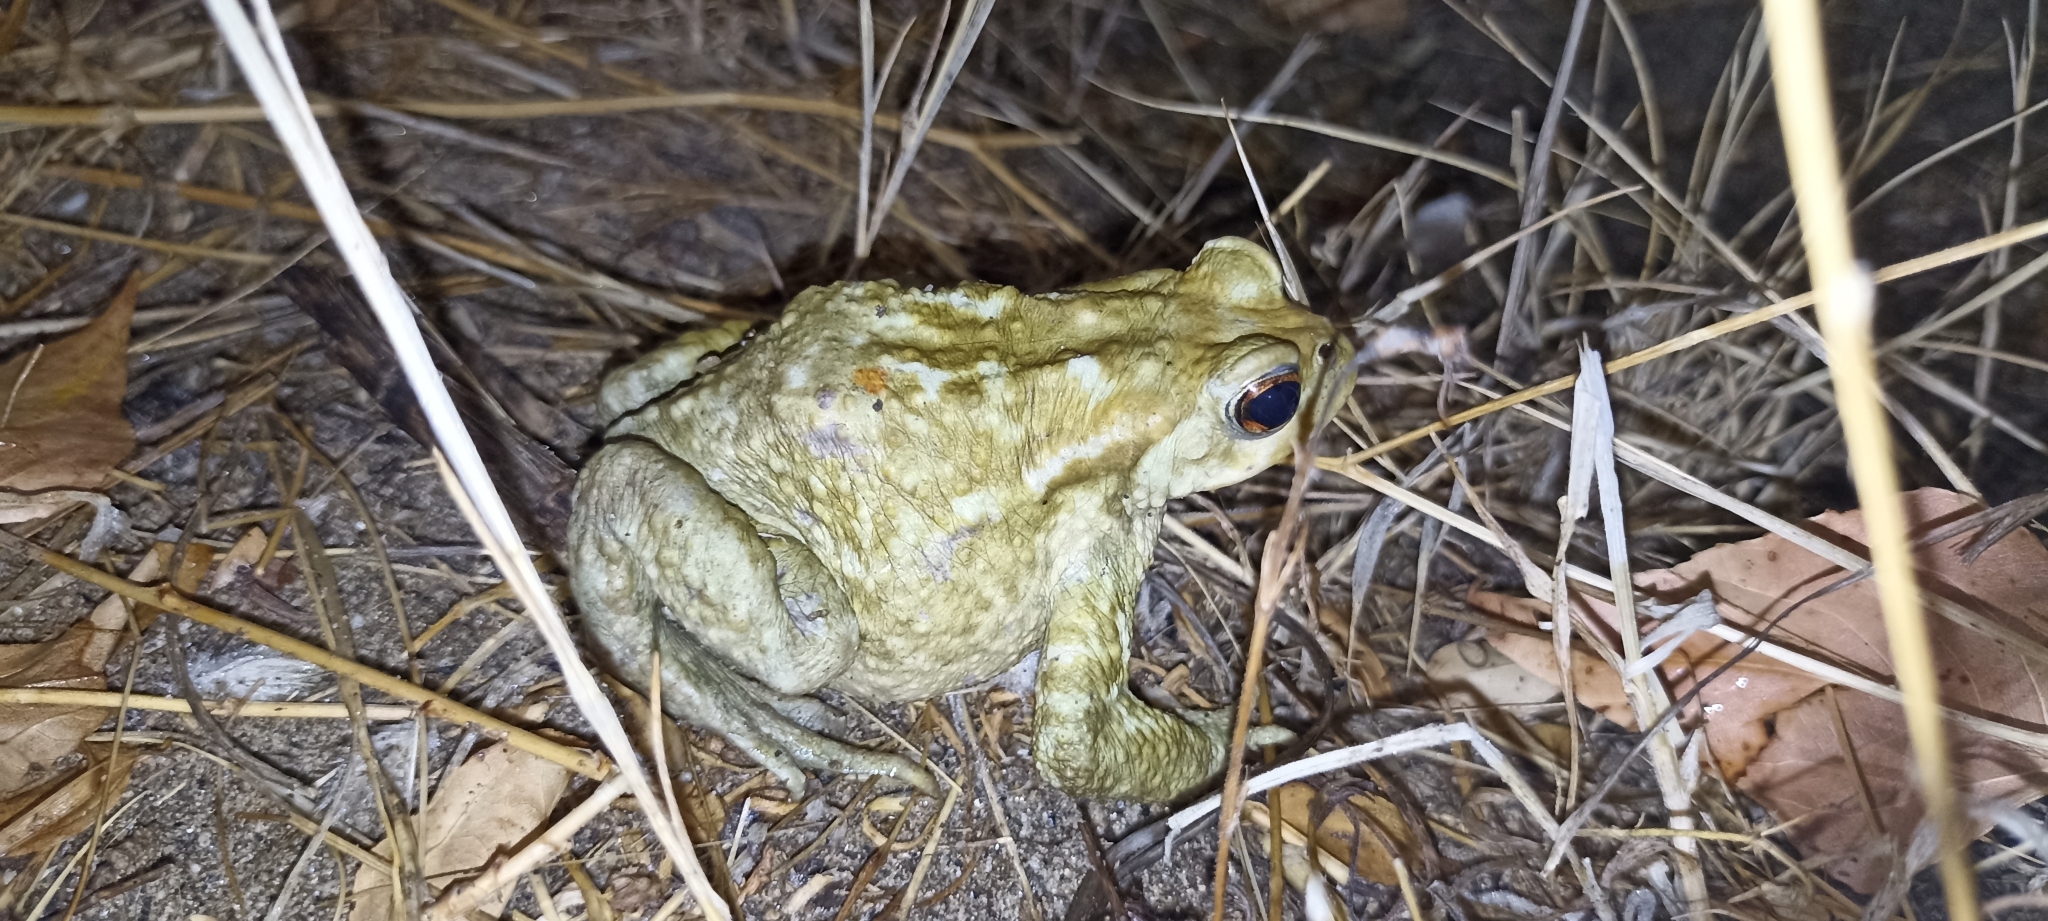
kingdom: Animalia
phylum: Chordata
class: Amphibia
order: Anura
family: Bufonidae
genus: Bufo
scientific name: Bufo spinosus
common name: Western common toad
